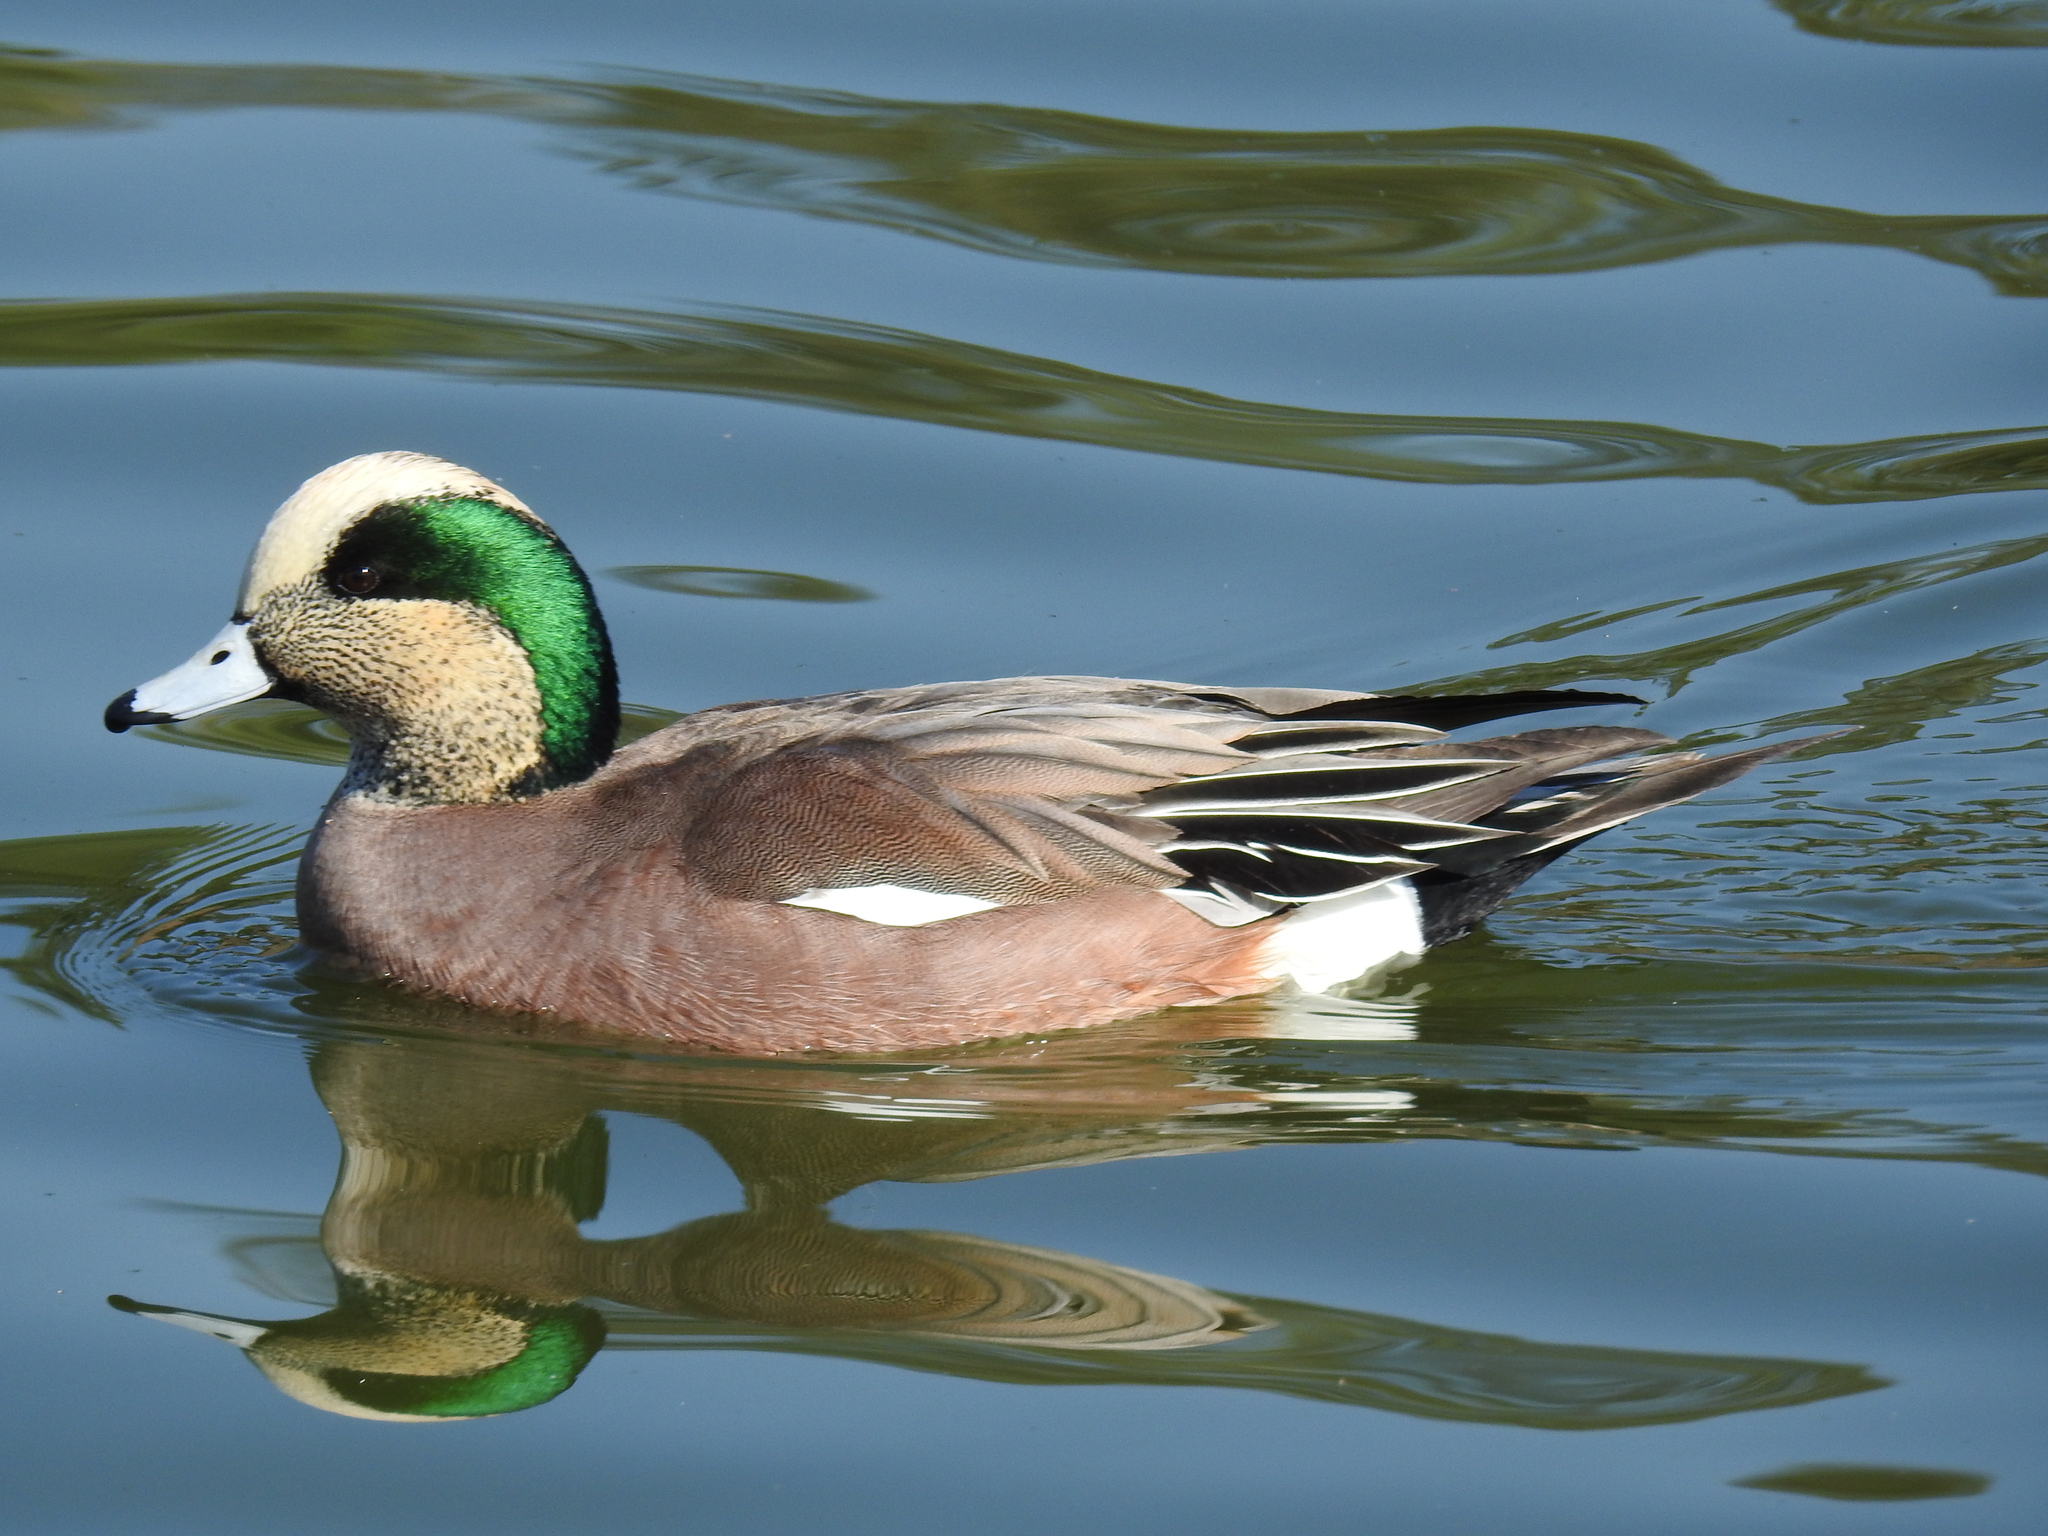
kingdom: Animalia
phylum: Chordata
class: Aves
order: Anseriformes
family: Anatidae
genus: Mareca
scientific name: Mareca americana
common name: American wigeon
